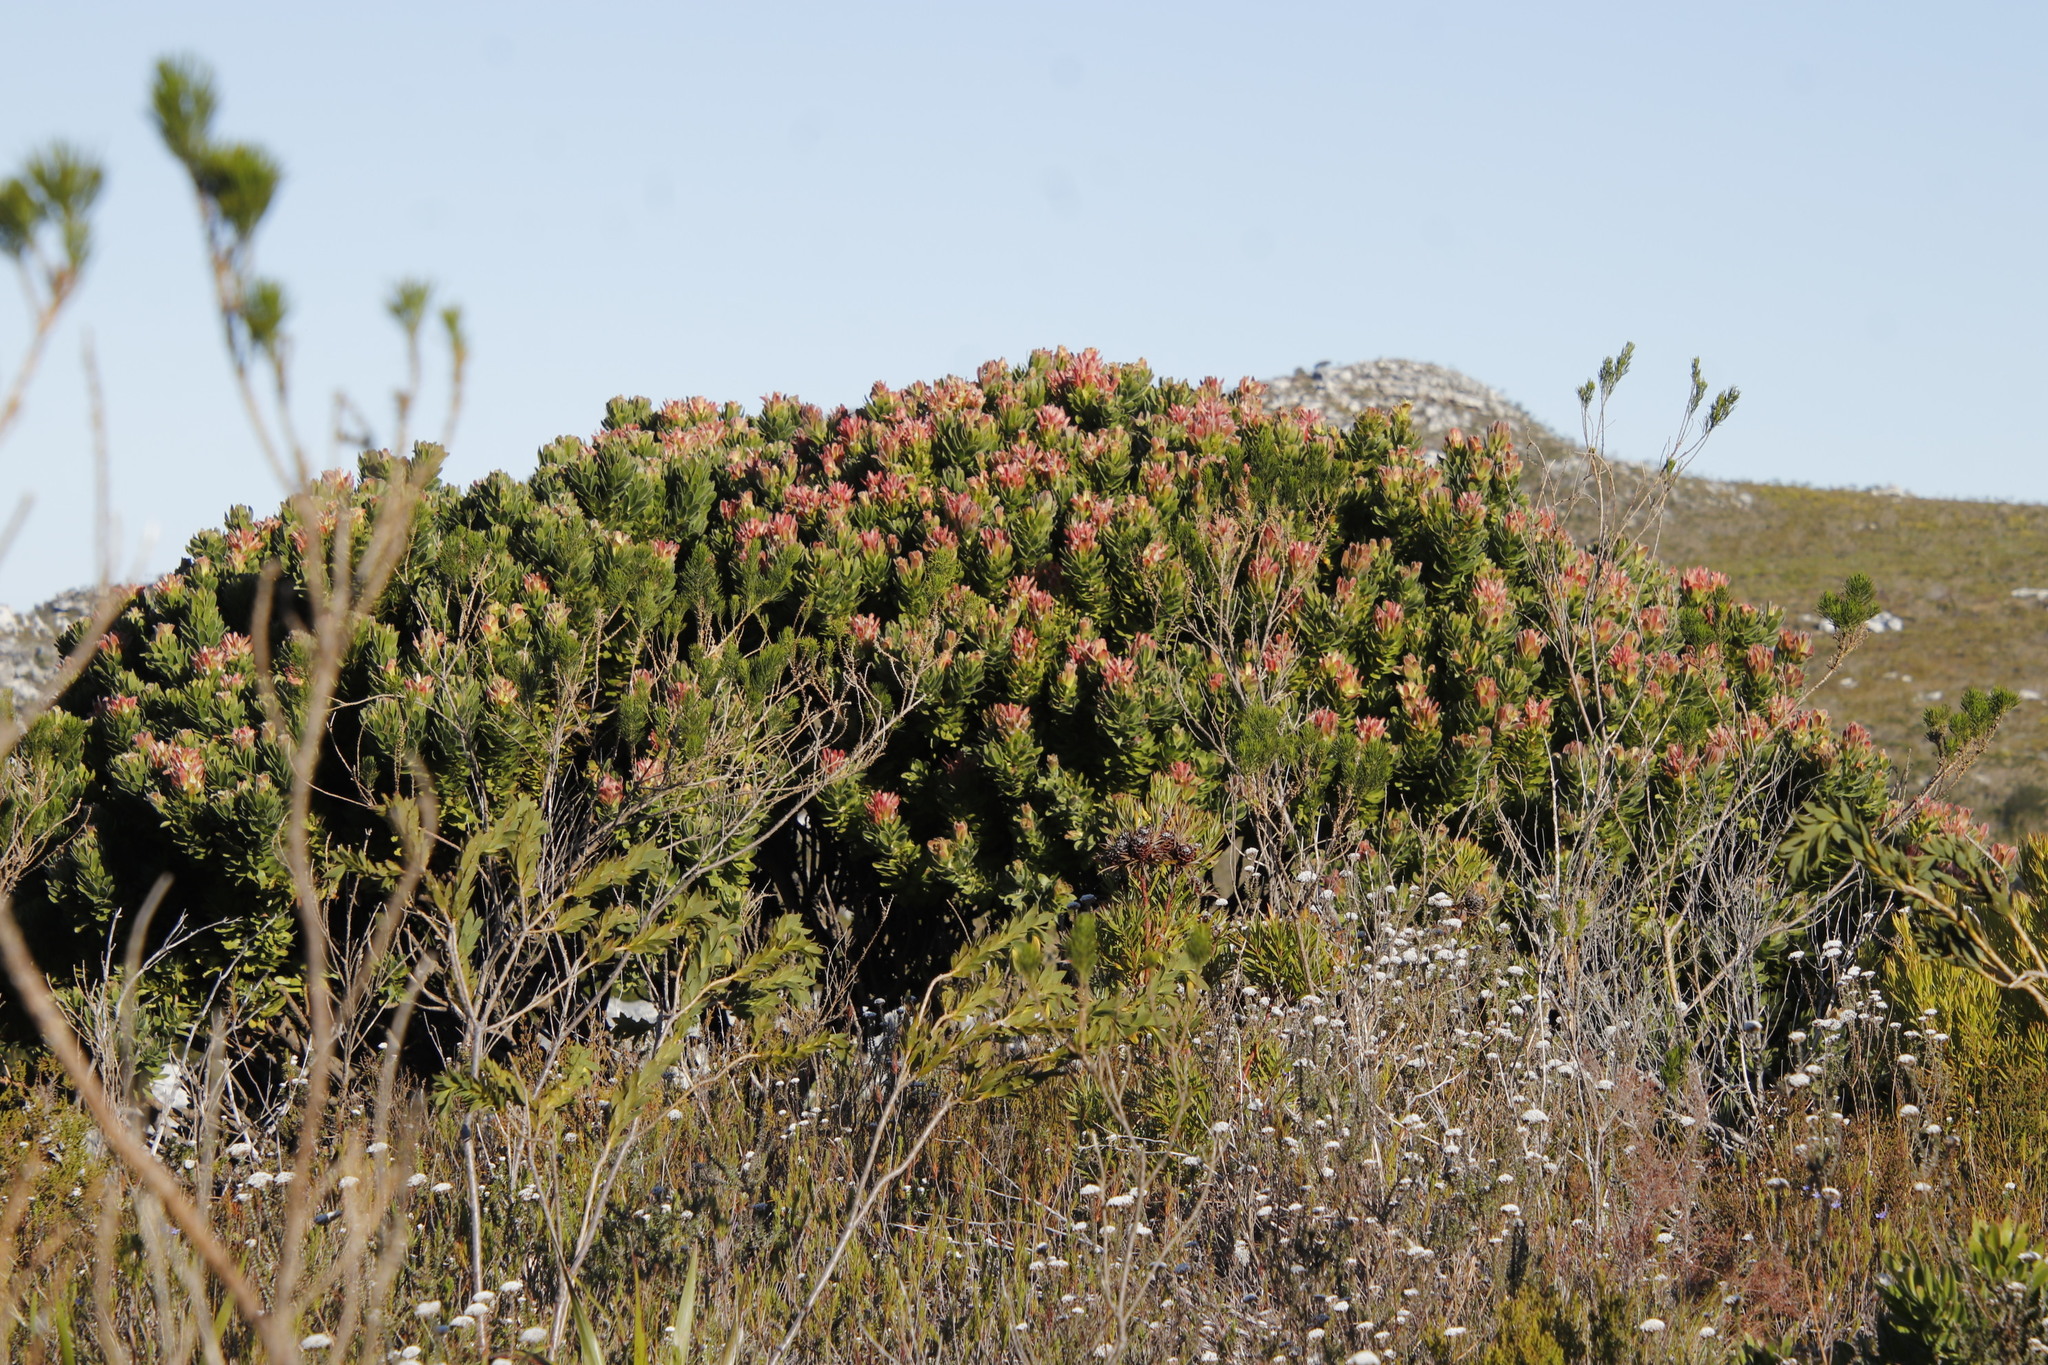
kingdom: Plantae
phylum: Tracheophyta
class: Magnoliopsida
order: Proteales
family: Proteaceae
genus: Mimetes
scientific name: Mimetes fimbriifolius
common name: Fringed bottlebrush
